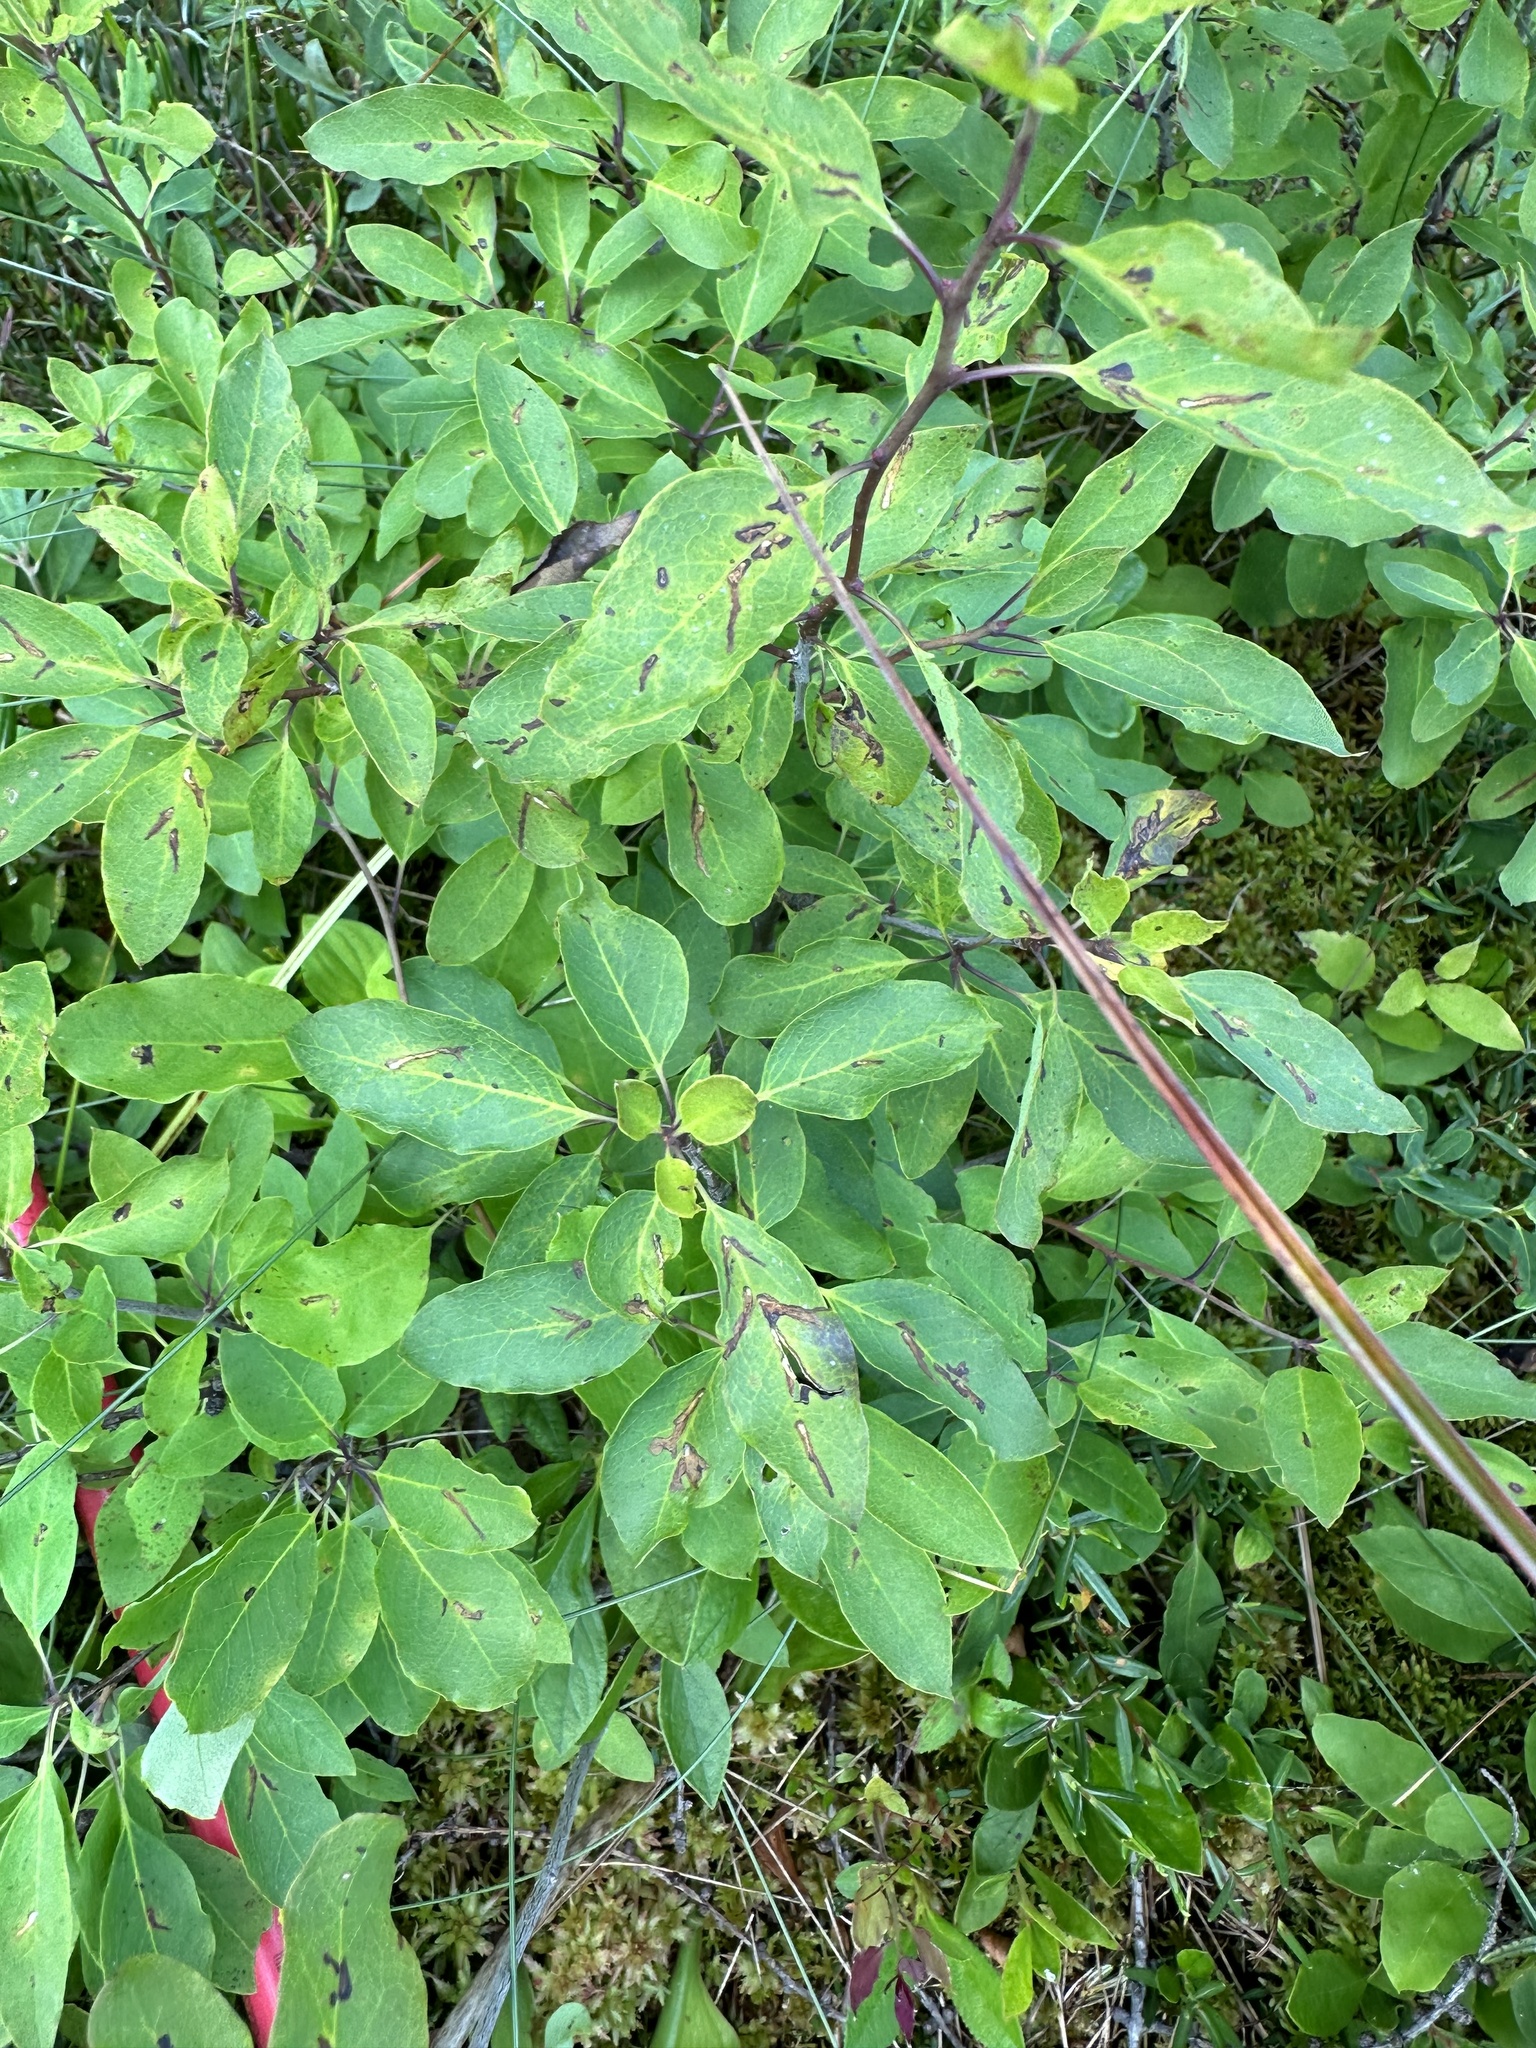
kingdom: Plantae
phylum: Tracheophyta
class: Magnoliopsida
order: Aquifoliales
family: Aquifoliaceae
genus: Ilex
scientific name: Ilex mucronata
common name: Catberry
